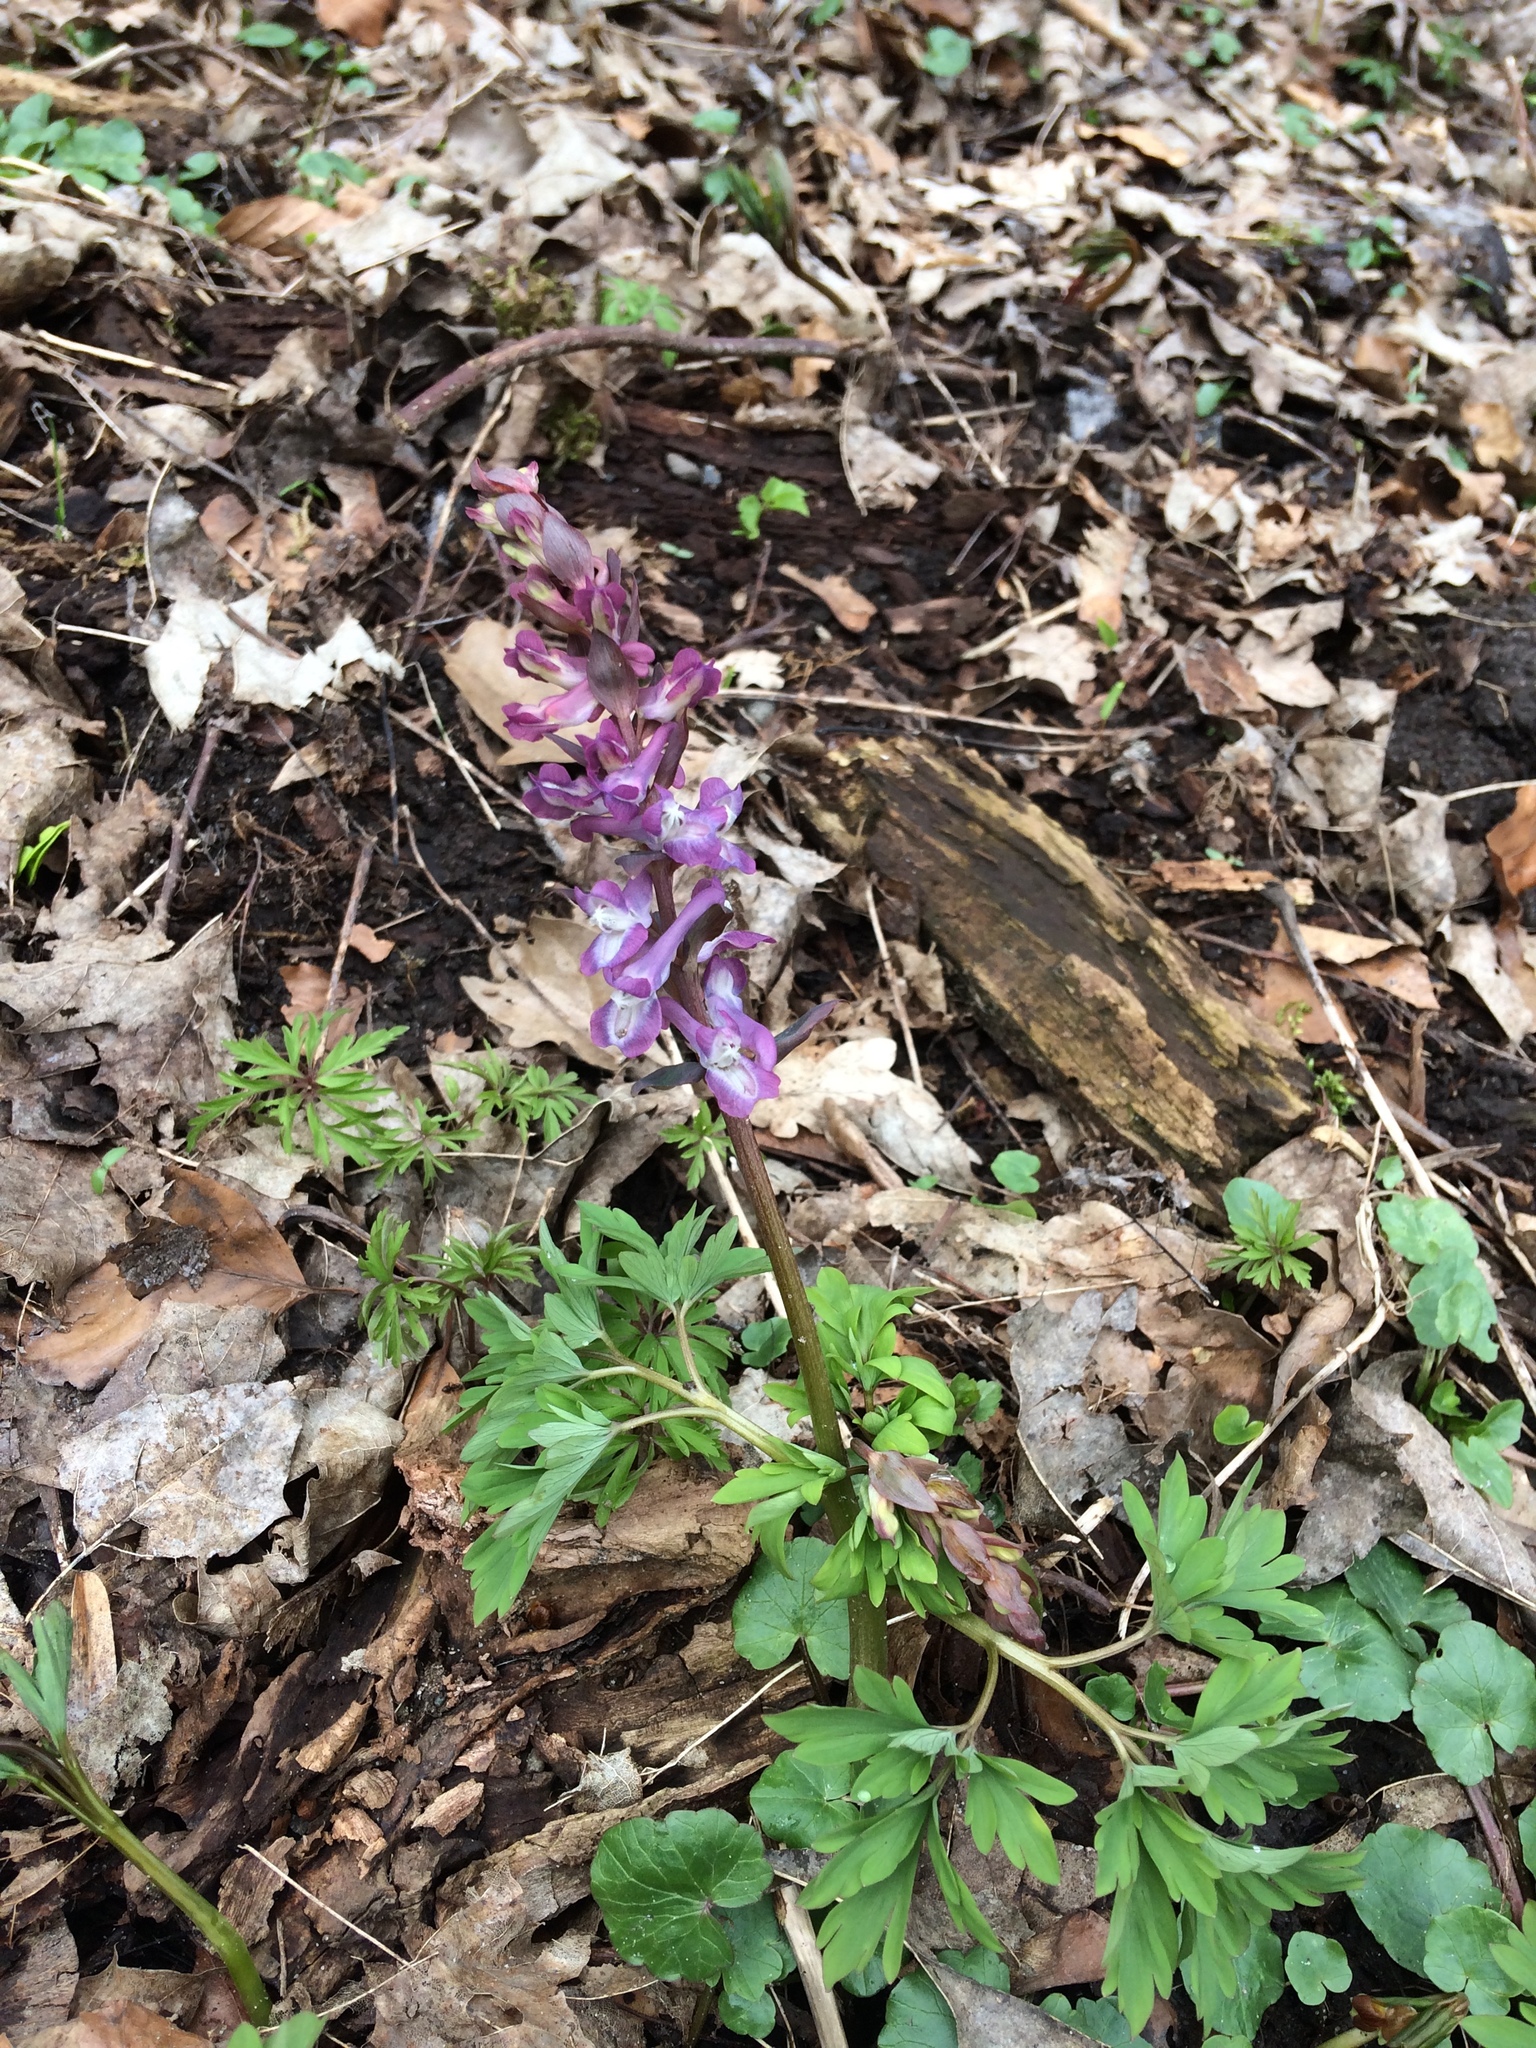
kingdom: Plantae
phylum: Tracheophyta
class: Magnoliopsida
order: Ranunculales
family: Papaveraceae
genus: Corydalis
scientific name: Corydalis cava
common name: Hollowroot
